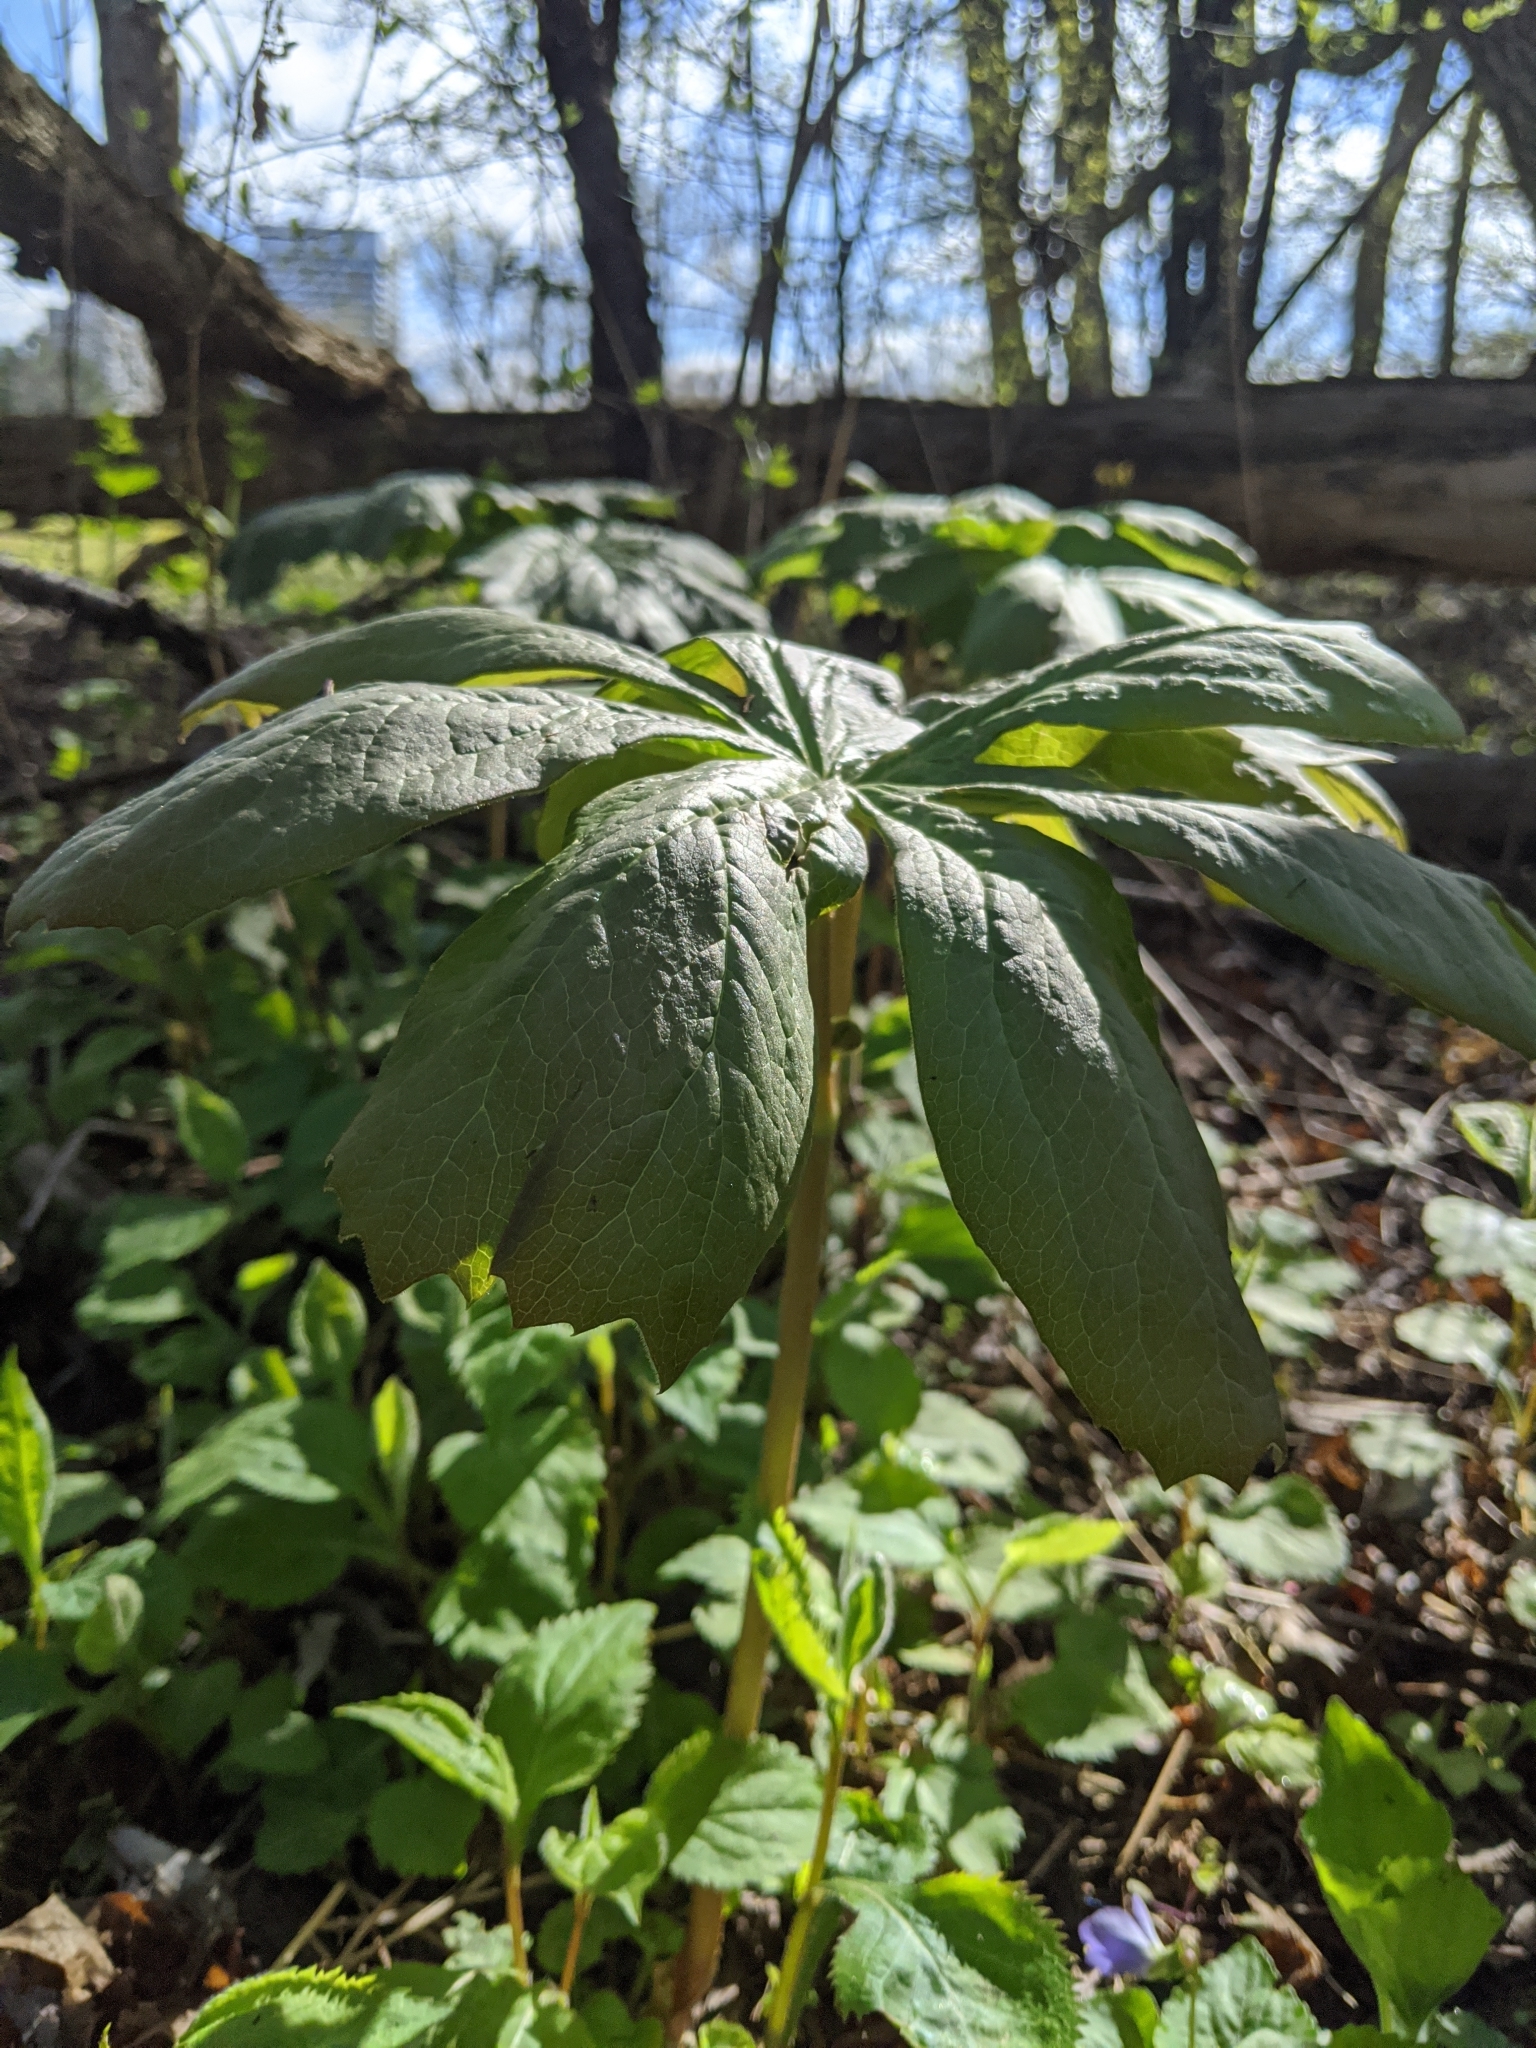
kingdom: Plantae
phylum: Tracheophyta
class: Magnoliopsida
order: Ranunculales
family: Berberidaceae
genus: Podophyllum
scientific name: Podophyllum peltatum
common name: Wild mandrake
